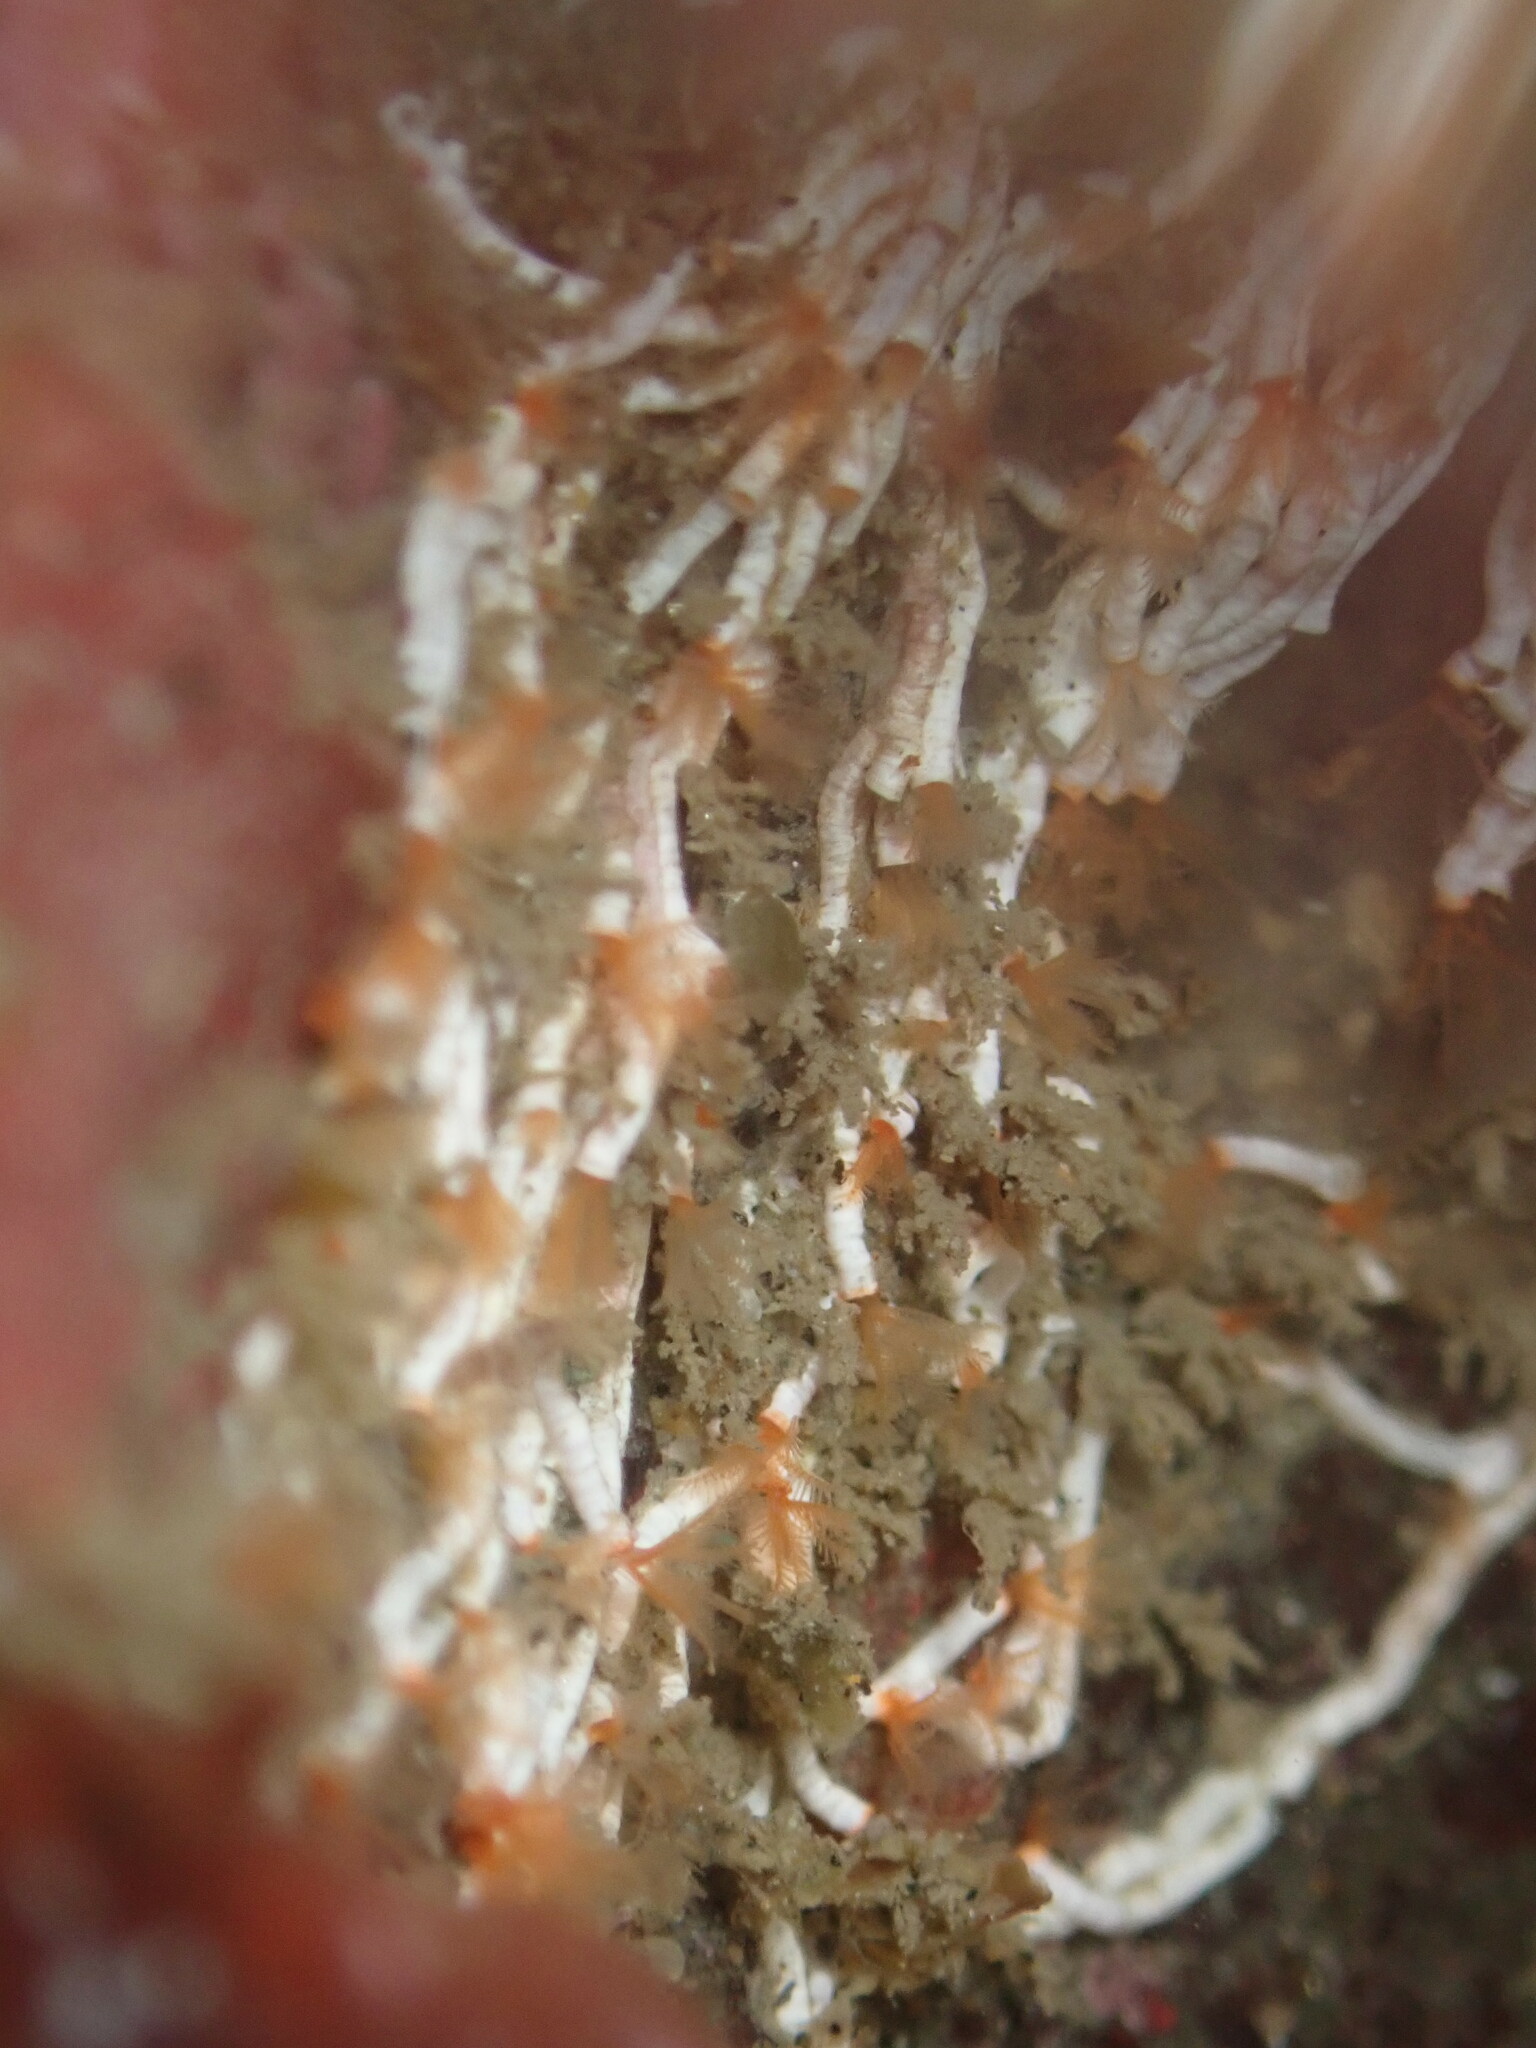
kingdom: Animalia
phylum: Annelida
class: Polychaeta
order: Sabellida
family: Serpulidae
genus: Salmacina
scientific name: Salmacina tribranchiata
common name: Fouling serpulid
